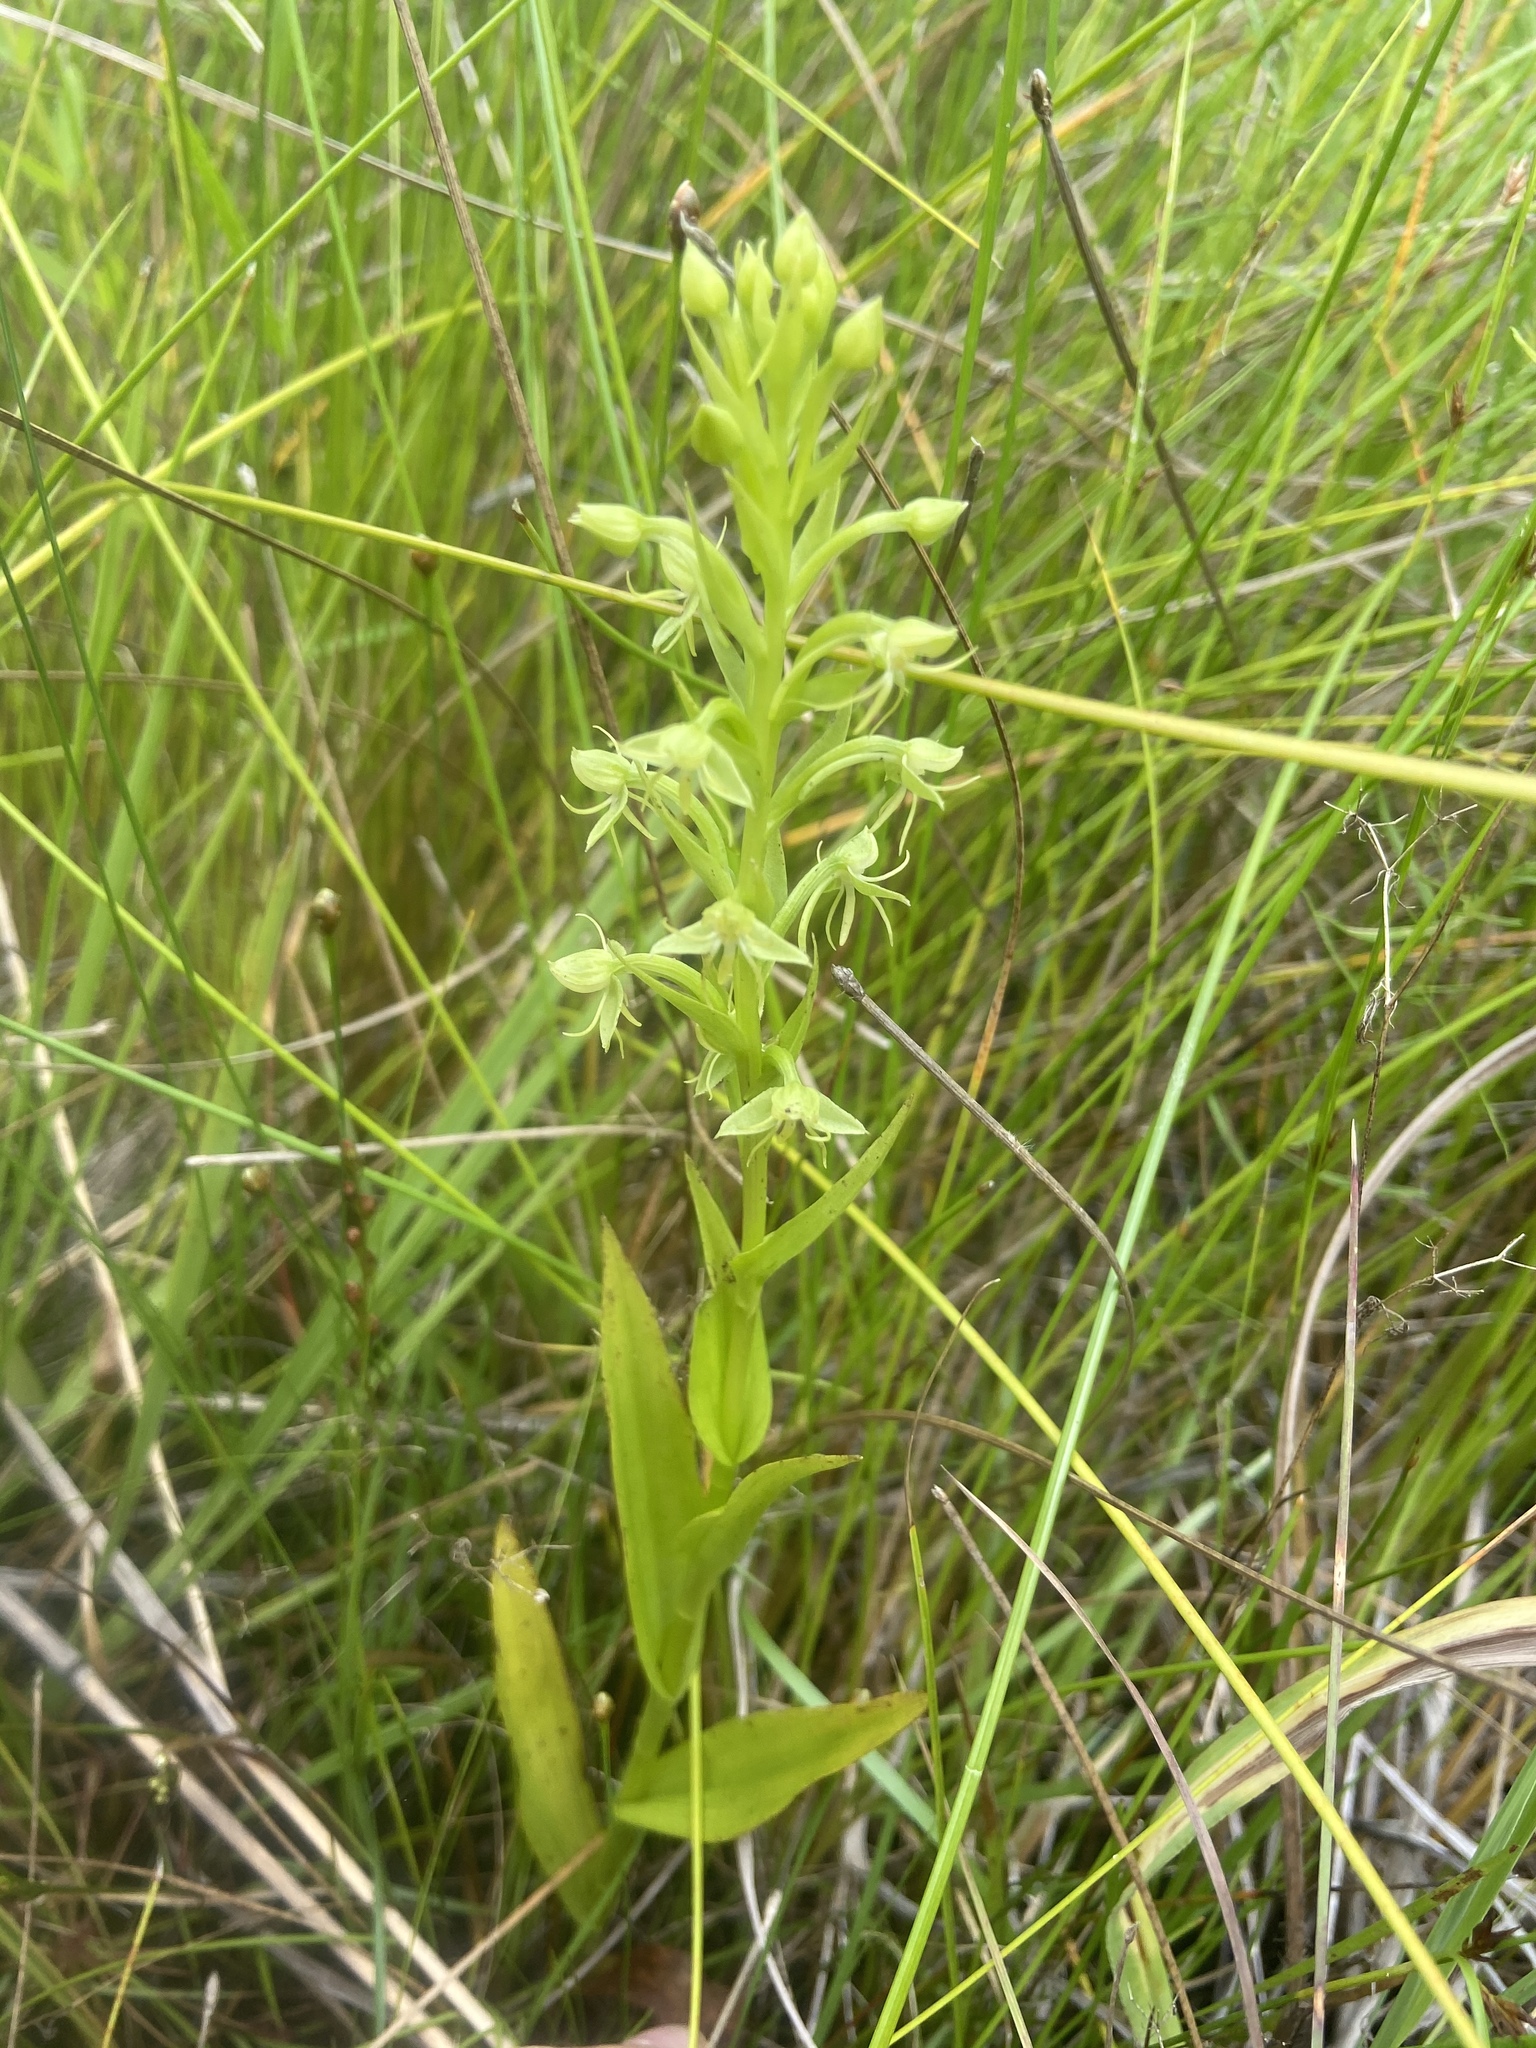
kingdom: Plantae
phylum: Tracheophyta
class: Liliopsida
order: Asparagales
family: Orchidaceae
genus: Habenaria
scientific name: Habenaria repens
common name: Water orchid
